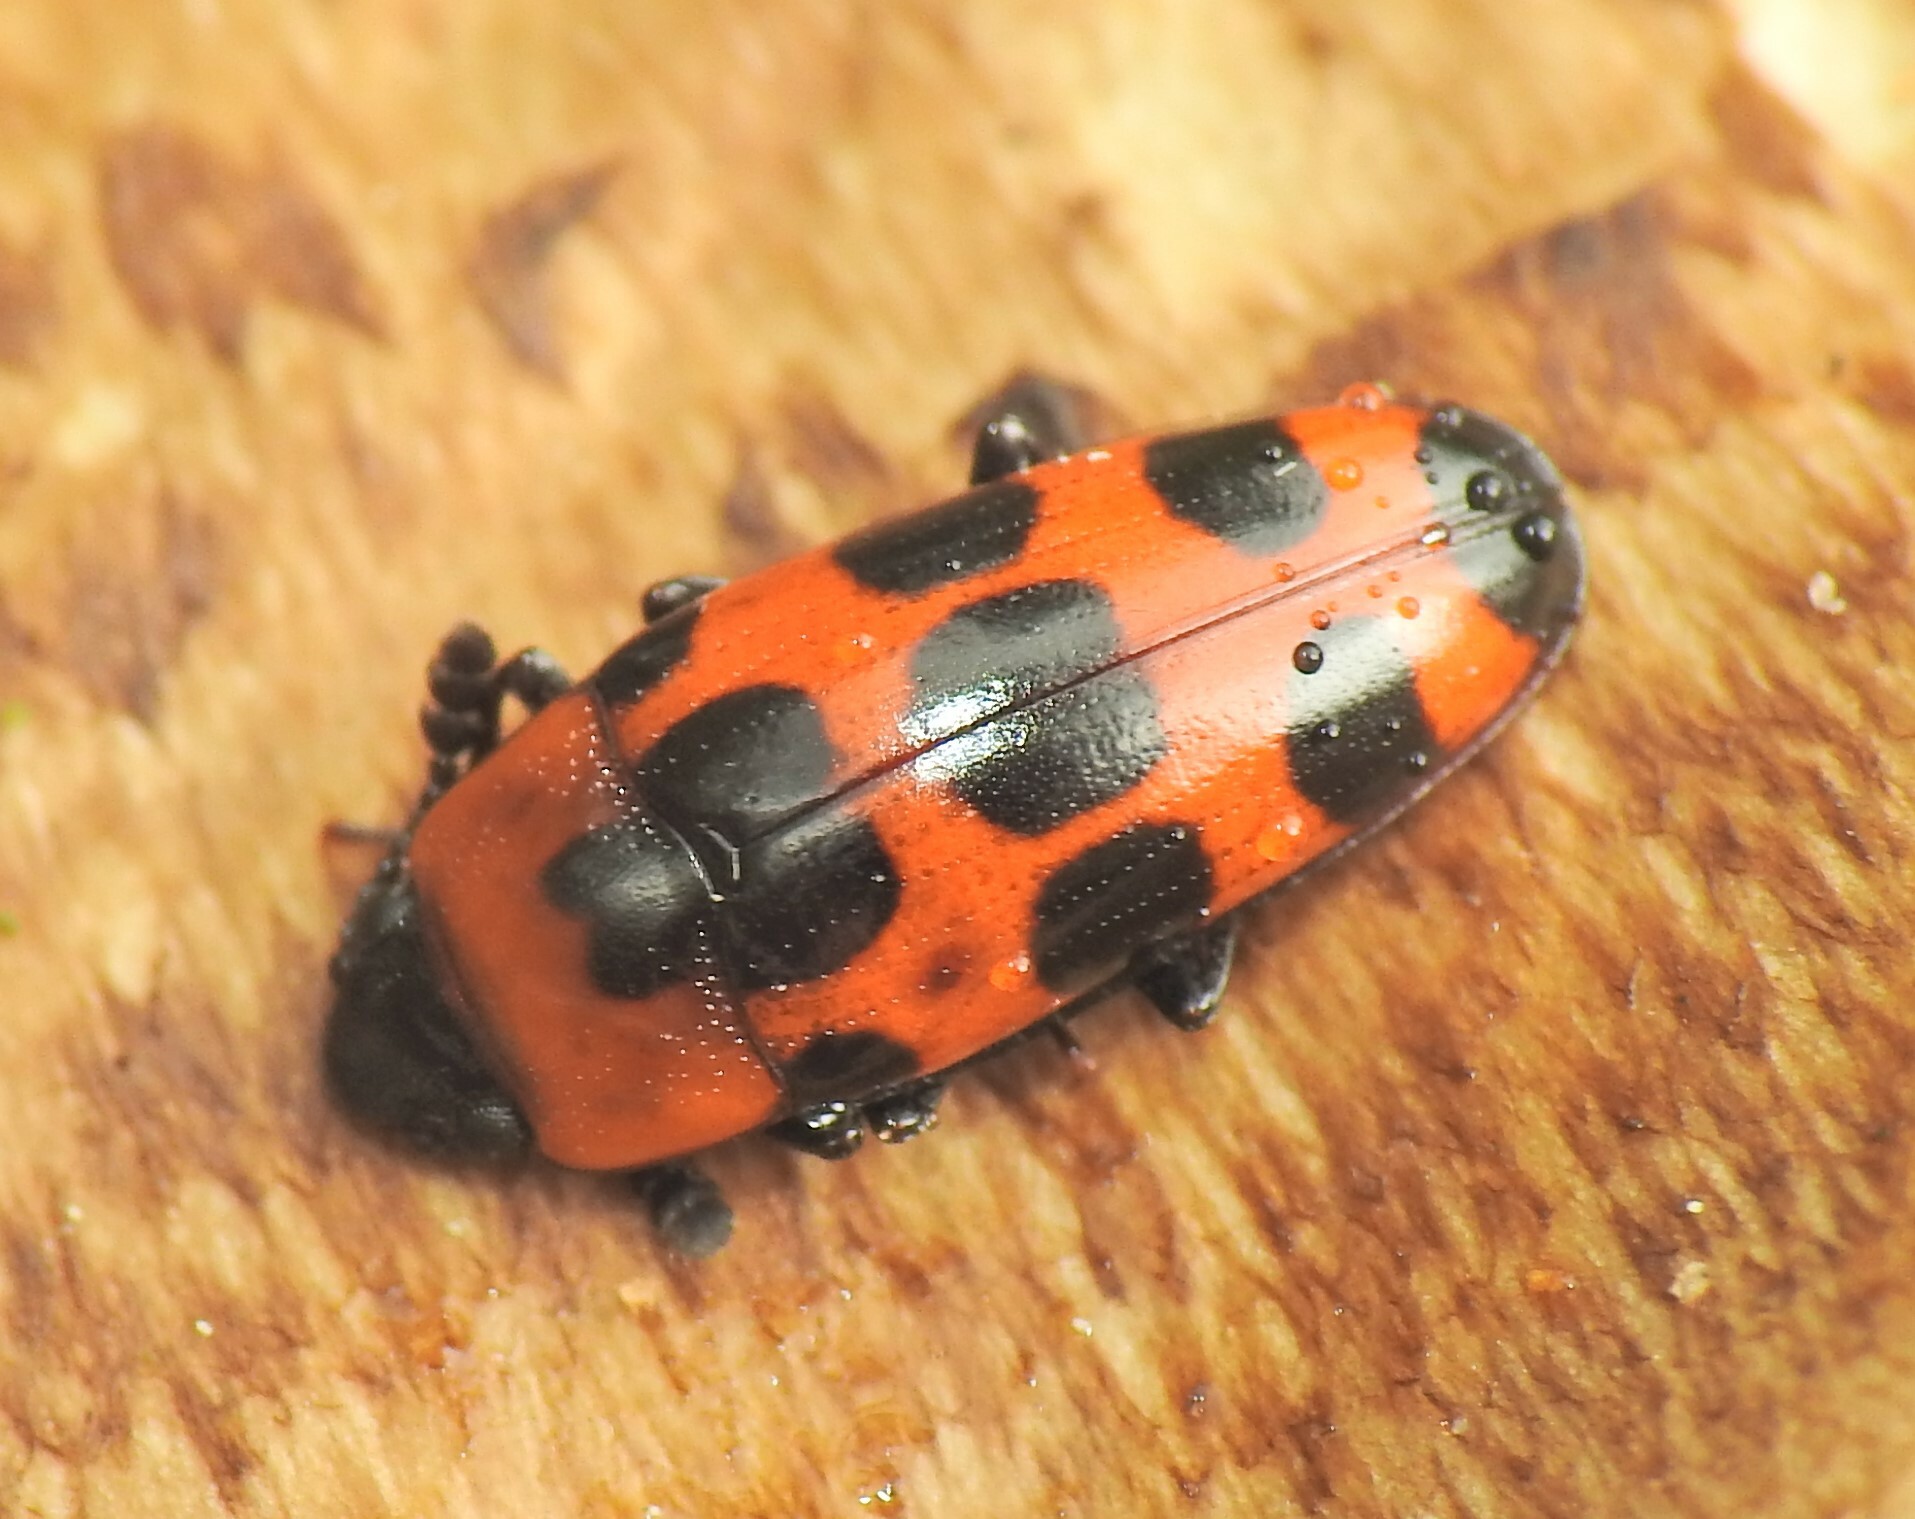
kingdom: Animalia
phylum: Arthropoda
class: Insecta
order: Coleoptera
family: Erotylidae
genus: Episcaphula
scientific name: Episcaphula australis
